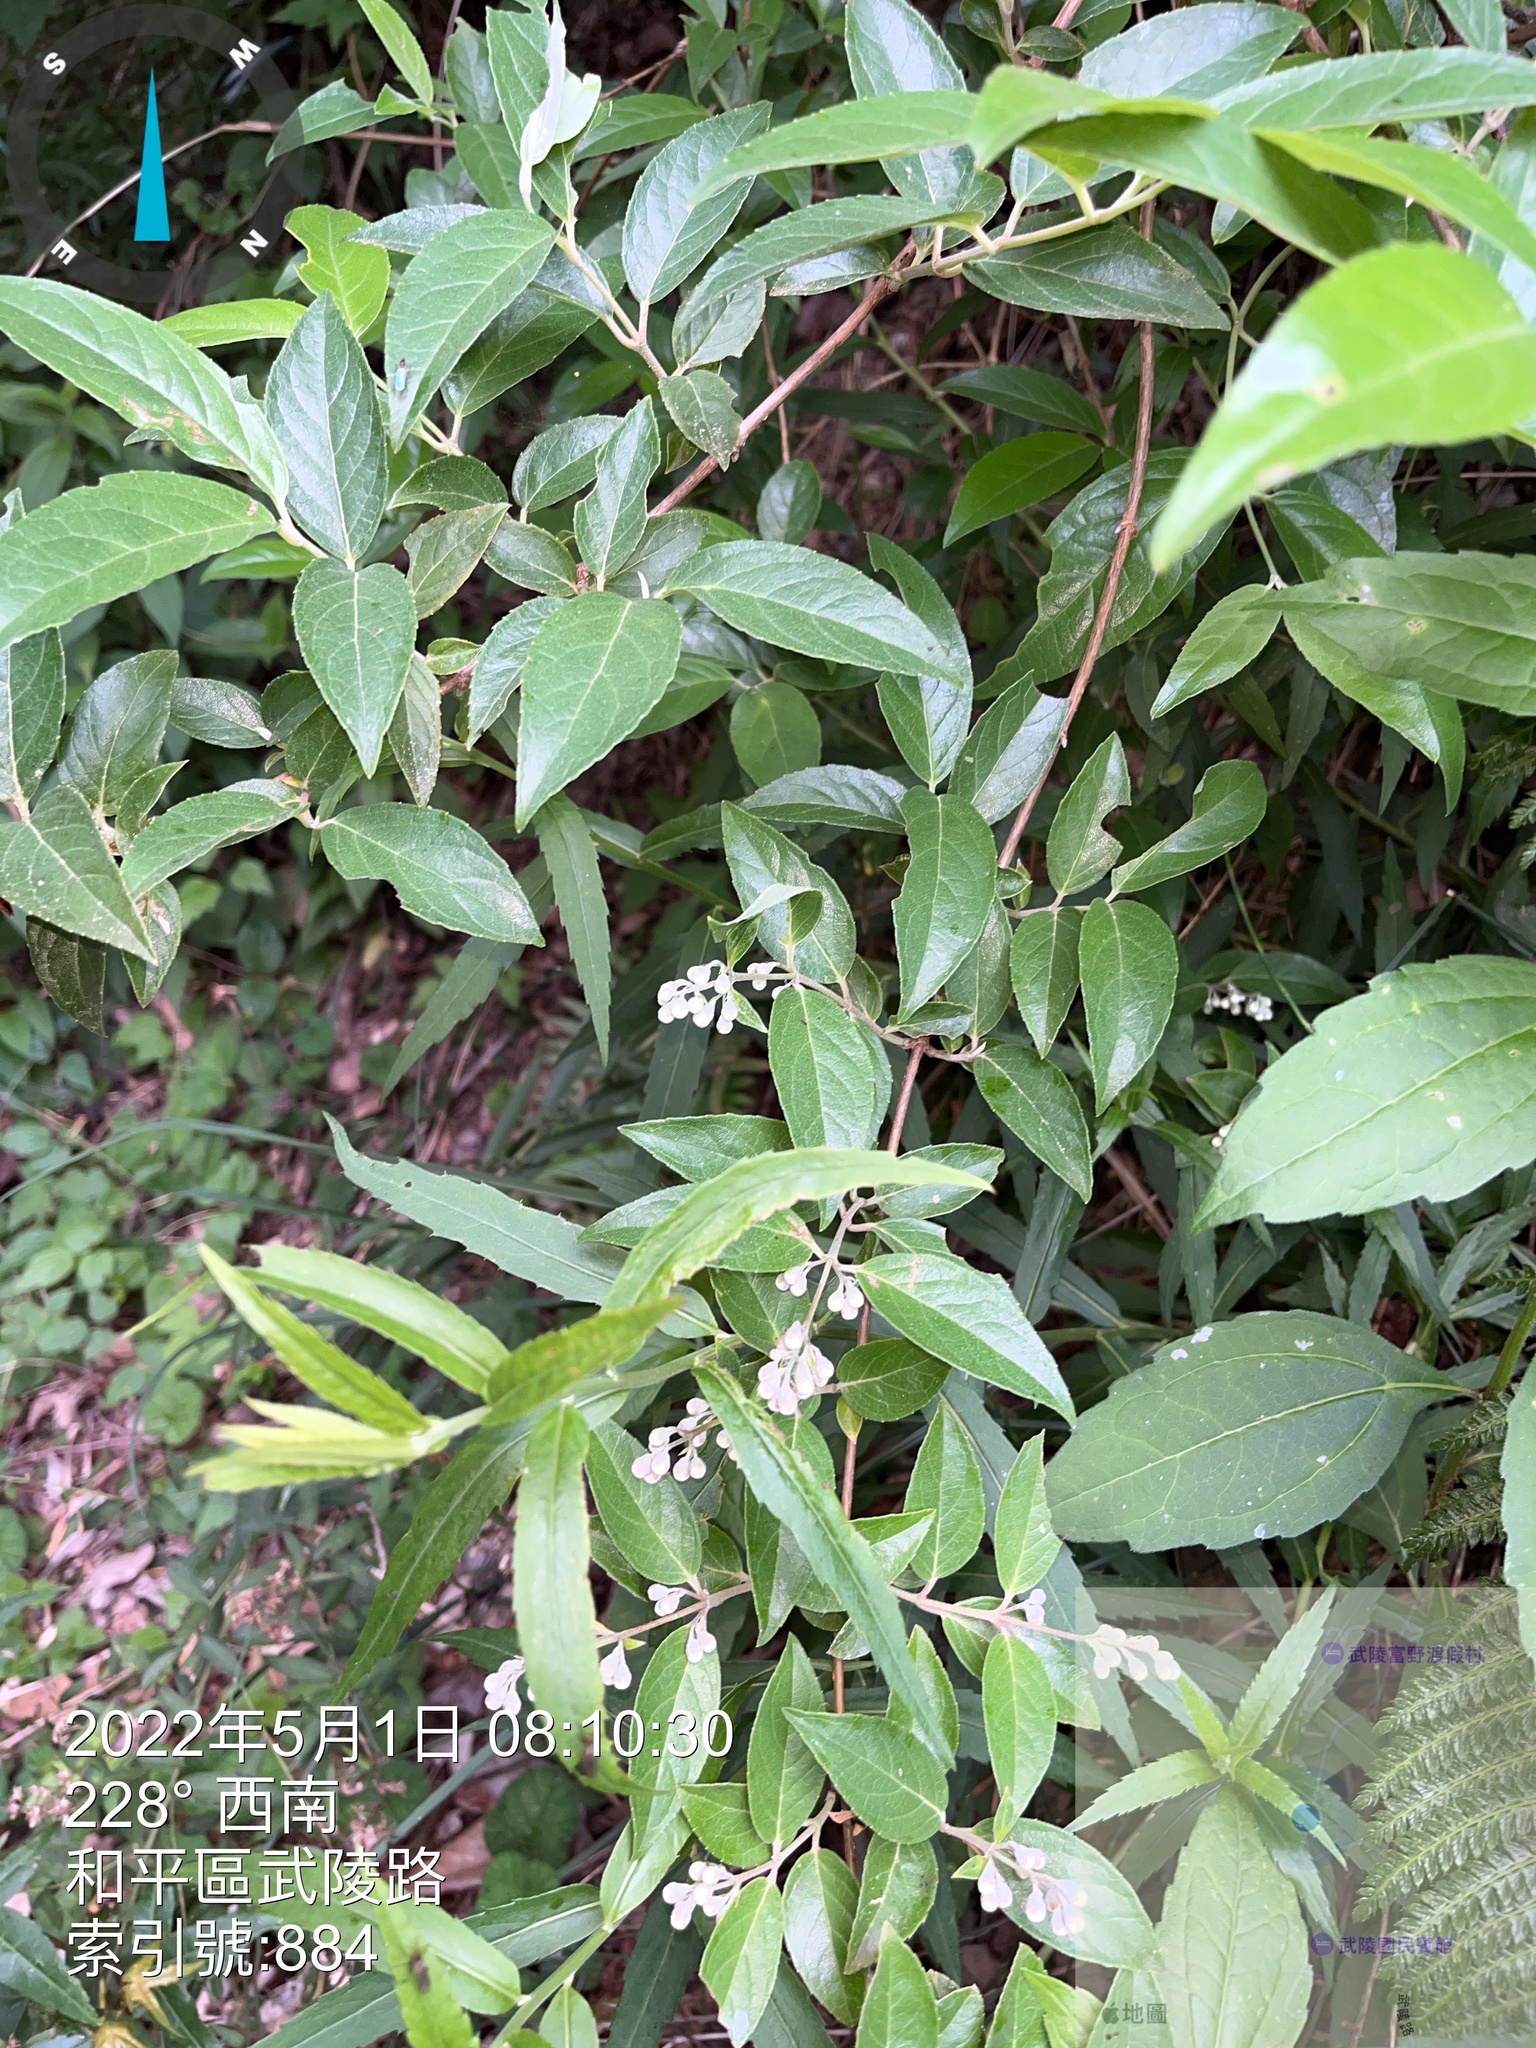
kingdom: Plantae
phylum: Tracheophyta
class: Magnoliopsida
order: Cornales
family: Hydrangeaceae
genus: Deutzia
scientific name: Deutzia pulchra
